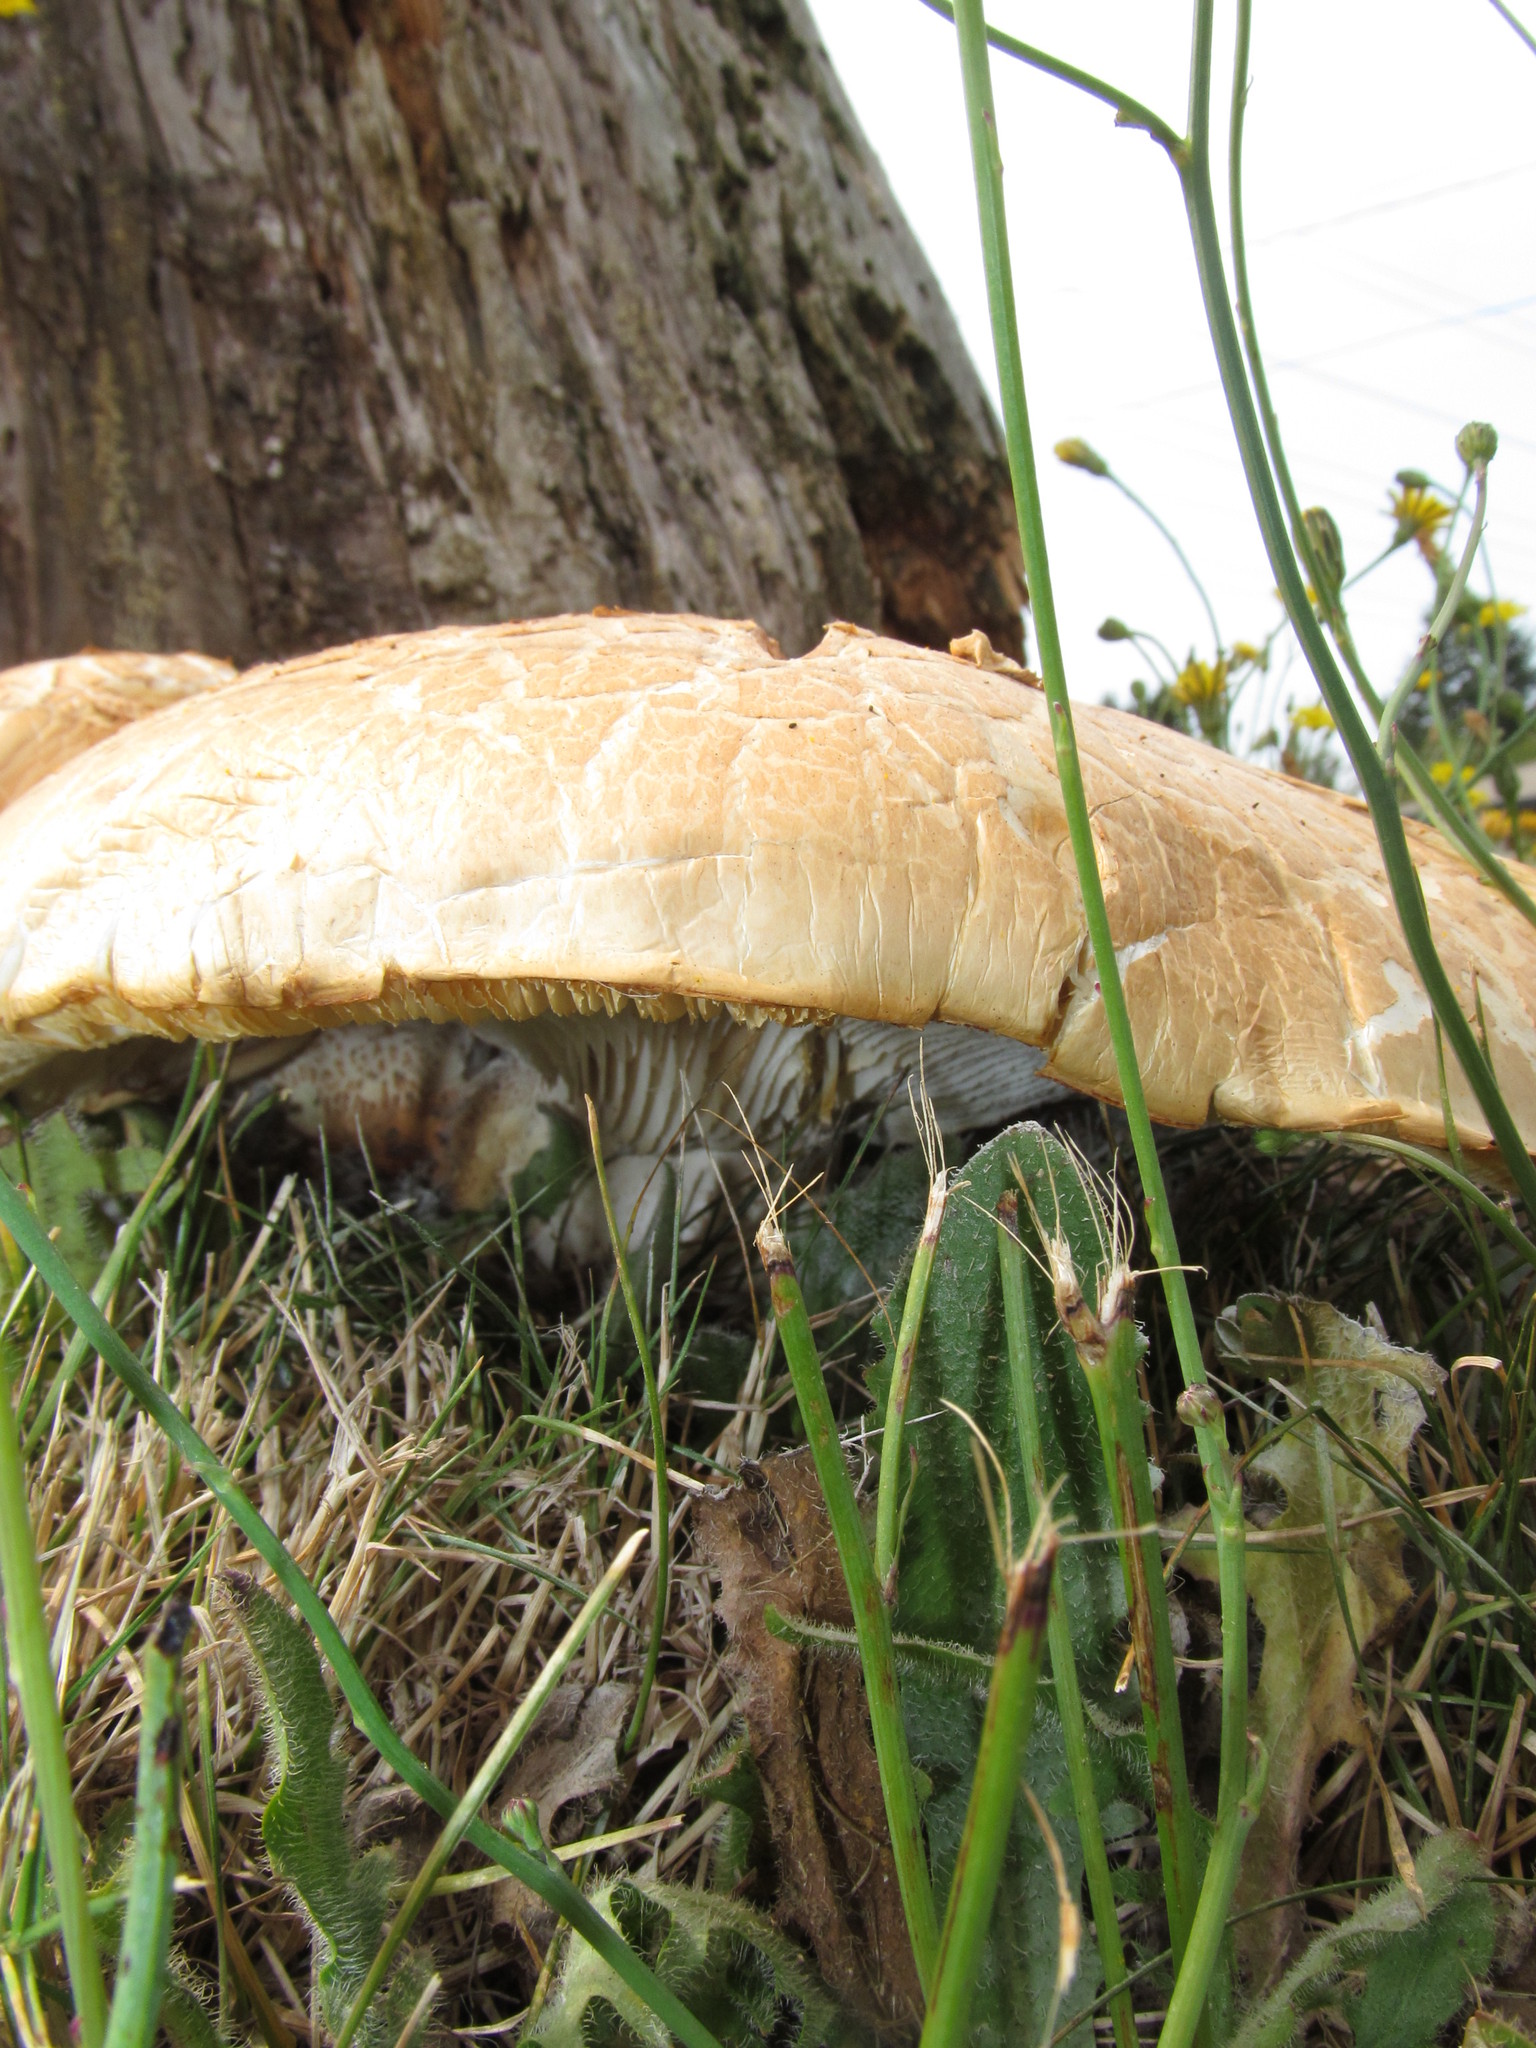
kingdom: Fungi
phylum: Basidiomycota
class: Agaricomycetes
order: Gloeophyllales
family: Gloeophyllaceae
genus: Neolentinus
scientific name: Neolentinus ponderosus
